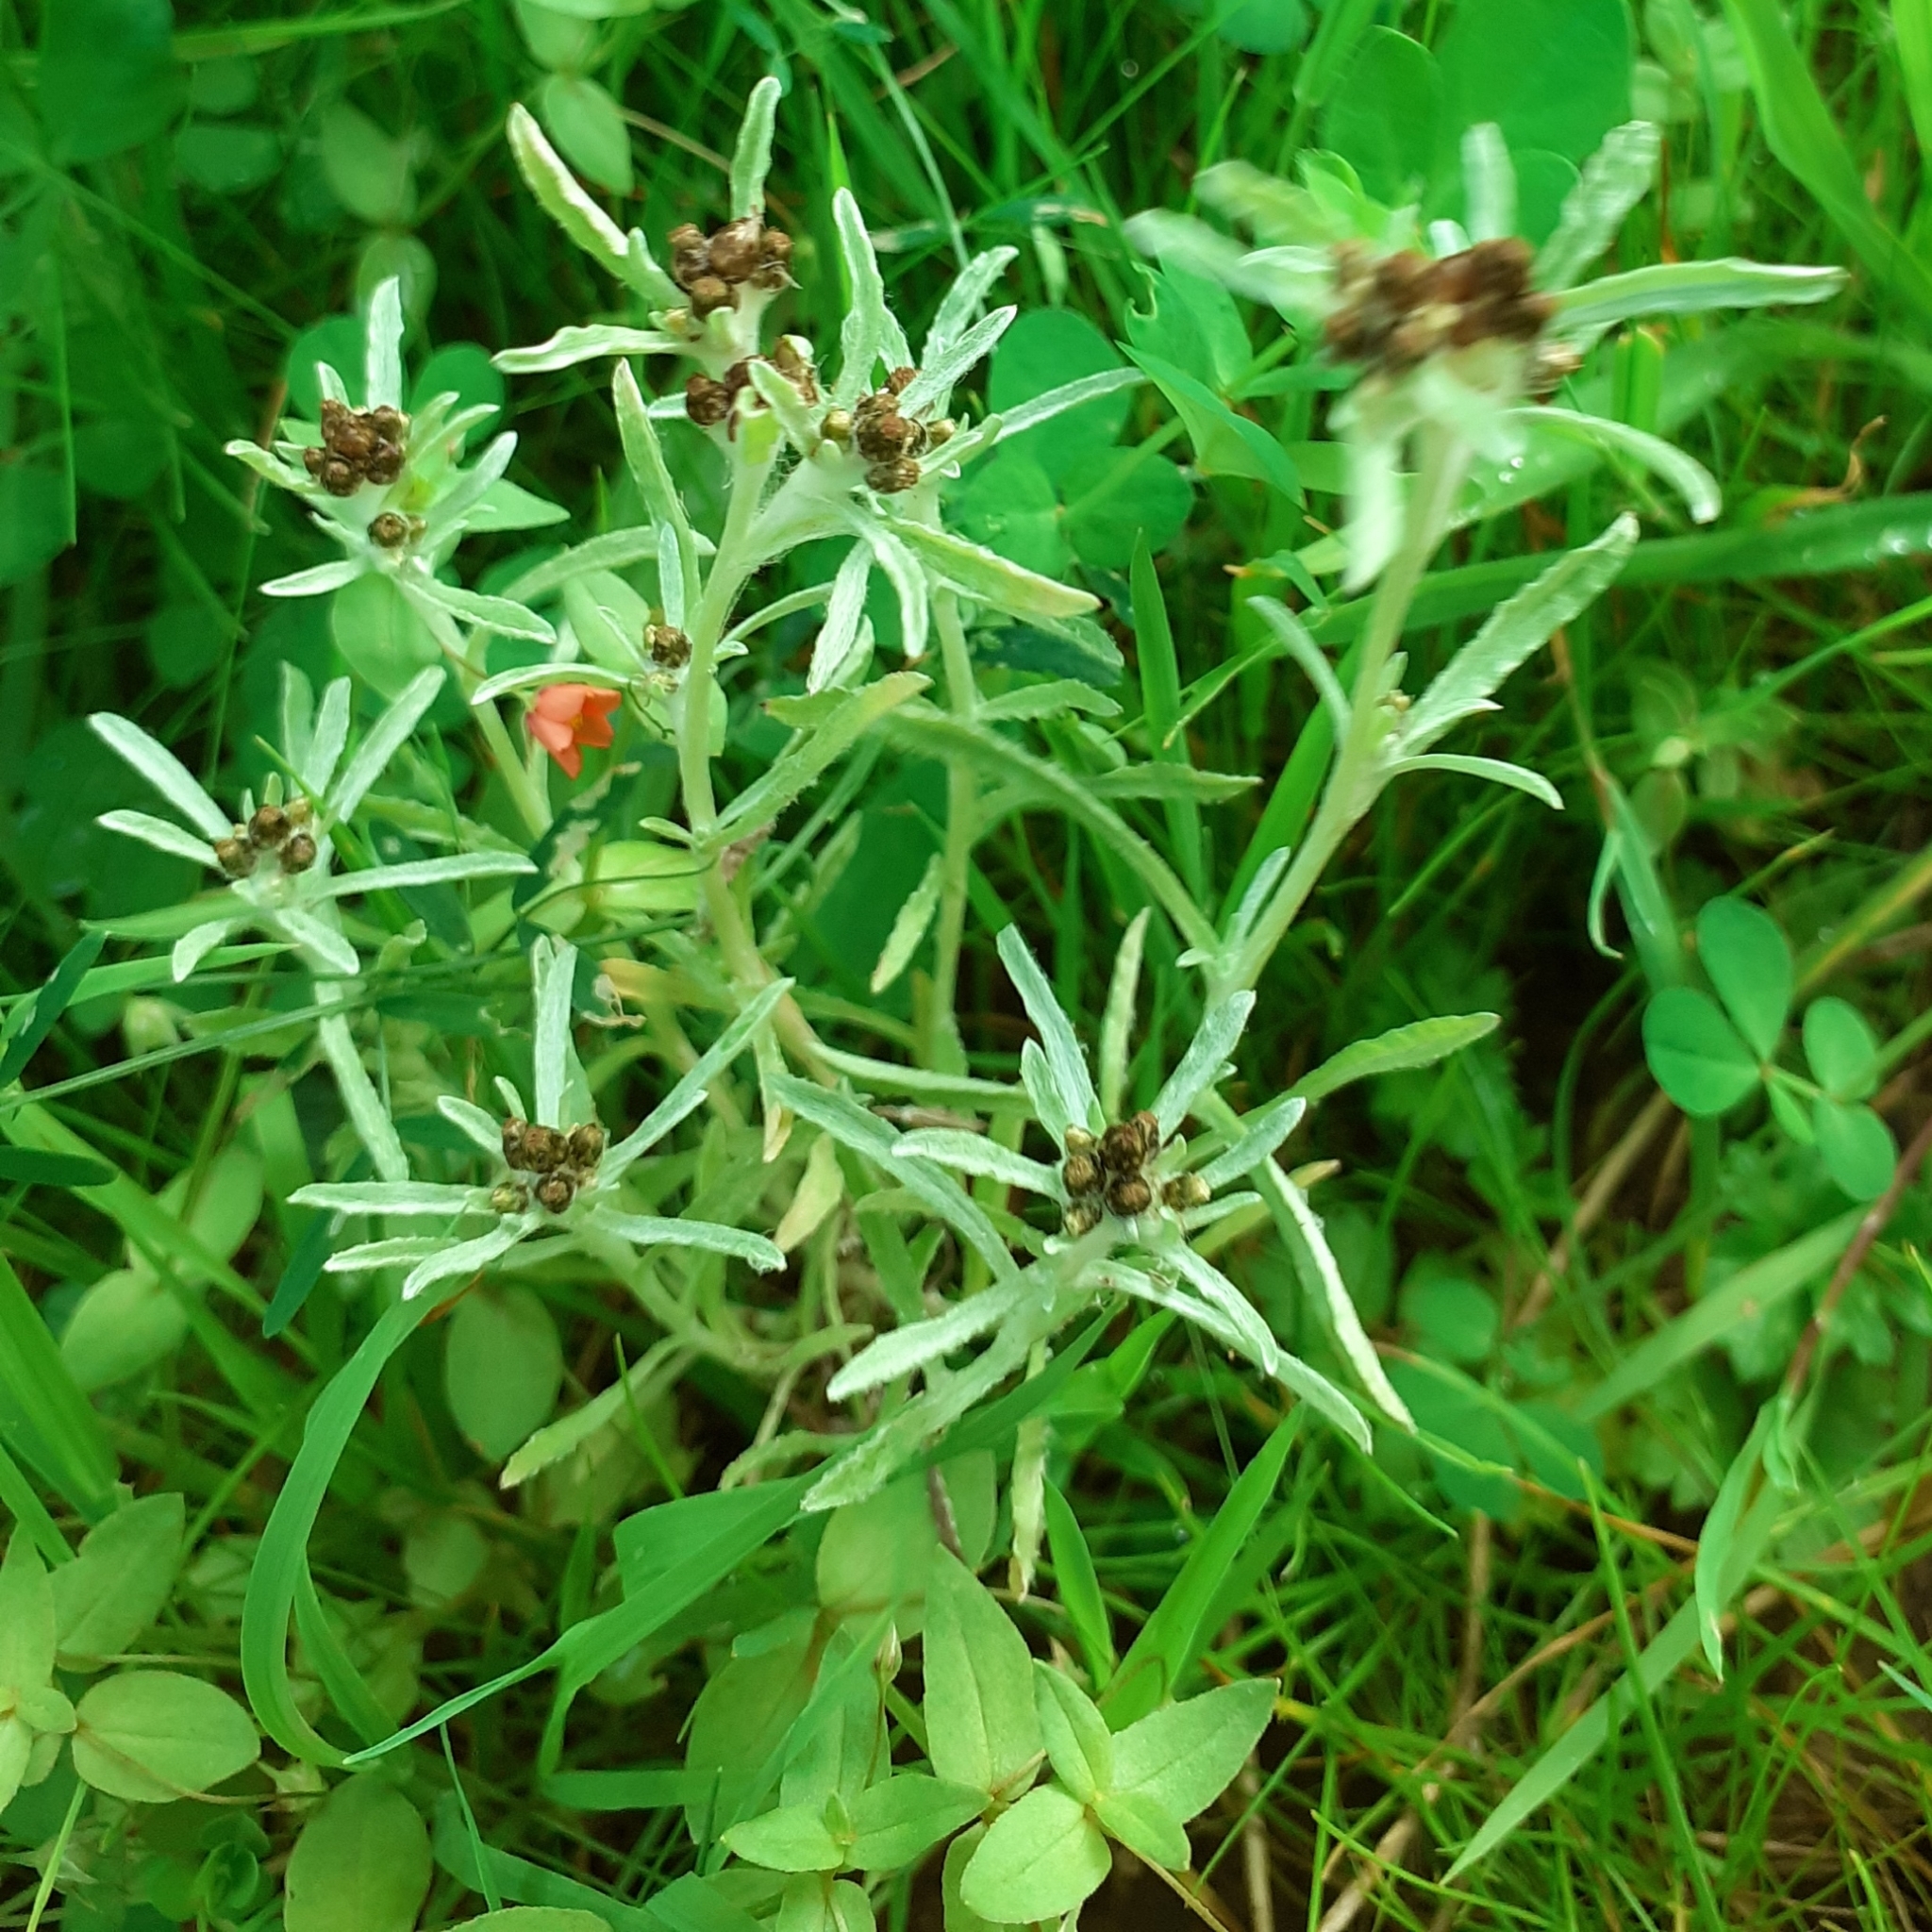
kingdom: Plantae
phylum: Tracheophyta
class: Magnoliopsida
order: Asterales
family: Asteraceae
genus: Gnaphalium
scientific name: Gnaphalium uliginosum
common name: Marsh cudweed
